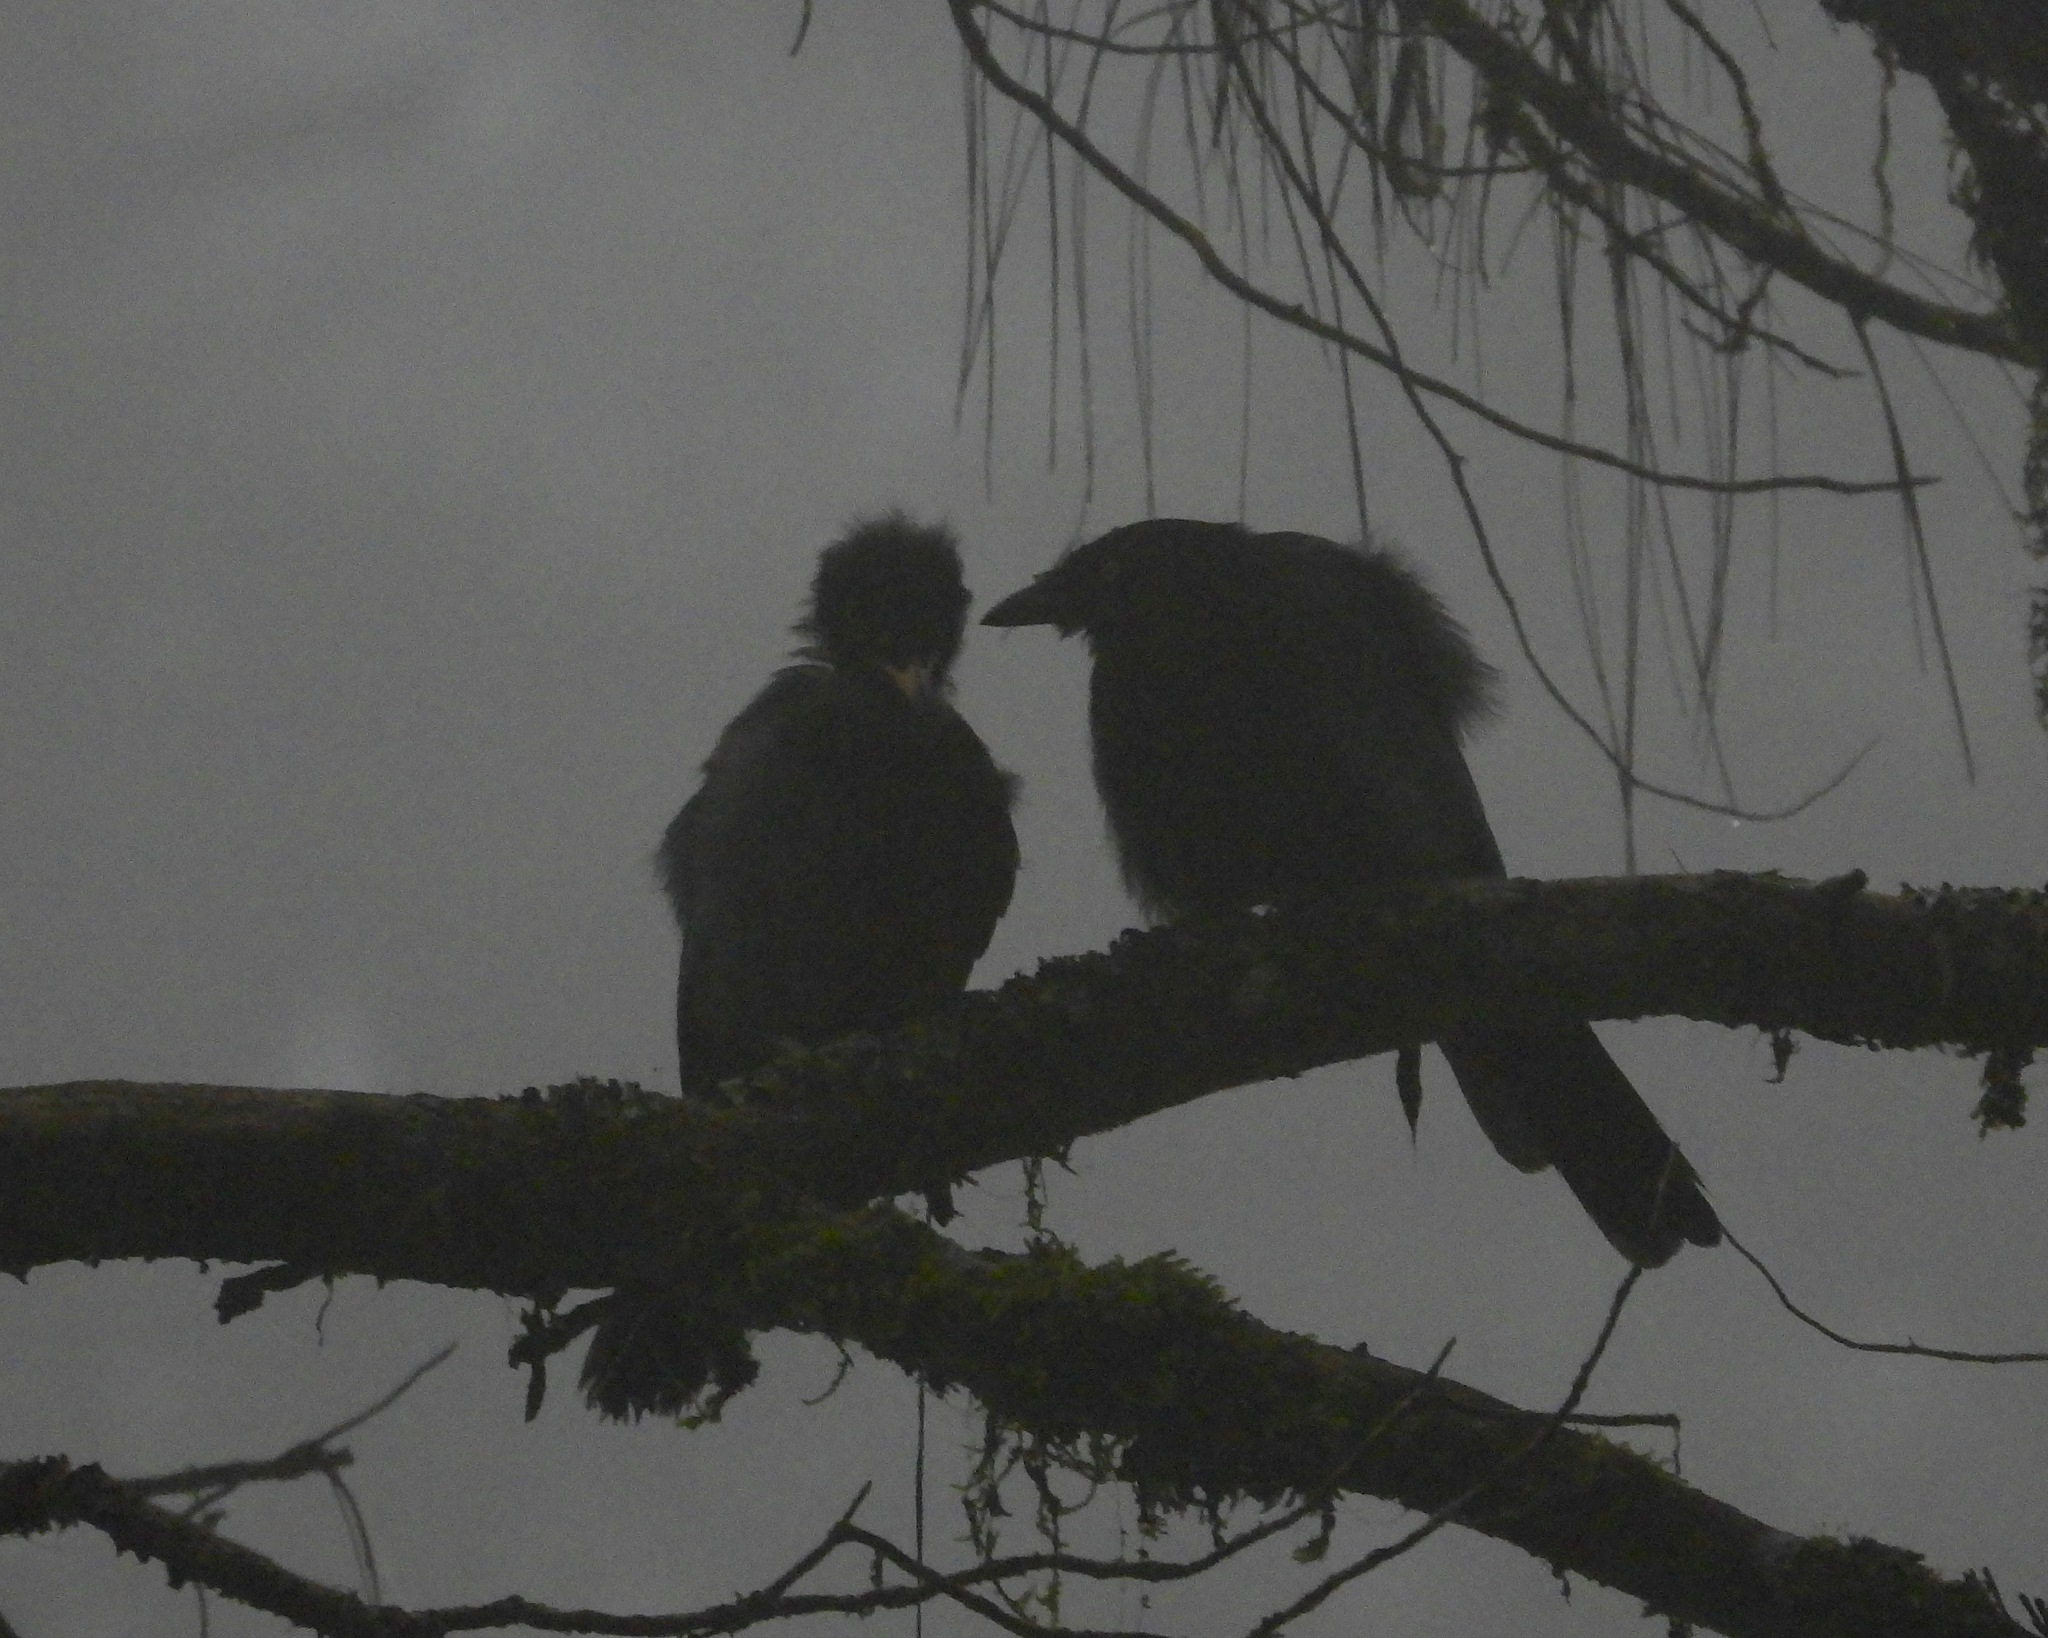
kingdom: Animalia
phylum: Chordata
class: Aves
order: Passeriformes
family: Corvidae
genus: Cyanocorax
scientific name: Cyanocorax melanocyaneus
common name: Bushy-crested jay
